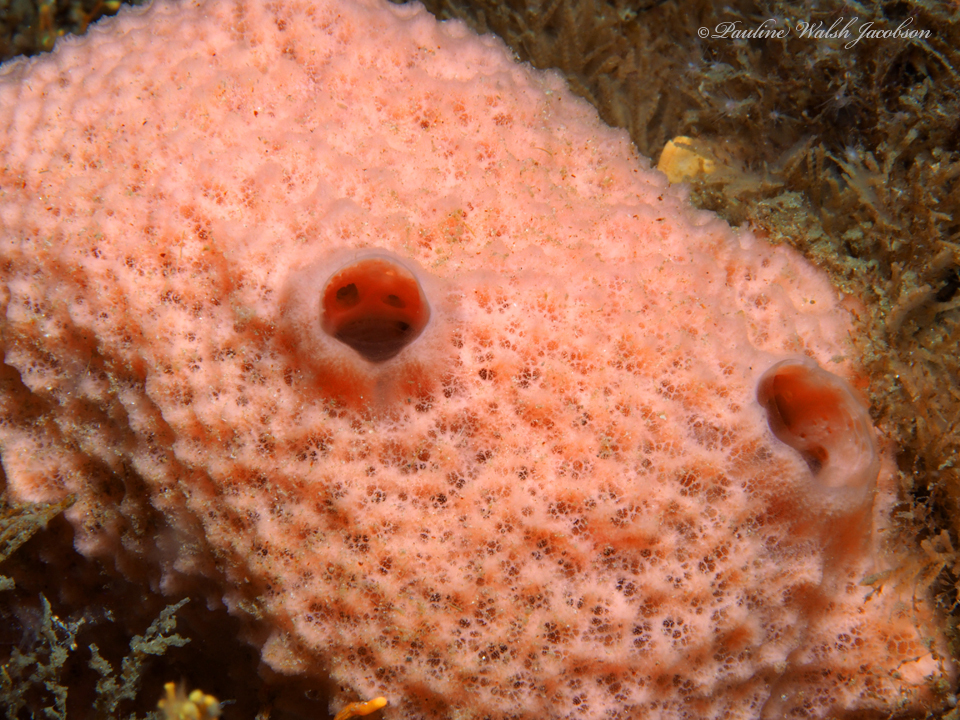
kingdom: Animalia
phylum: Porifera
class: Demospongiae
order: Haplosclerida
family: Niphatidae
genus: Amphimedon
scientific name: Amphimedon compressa
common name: Red sponge
